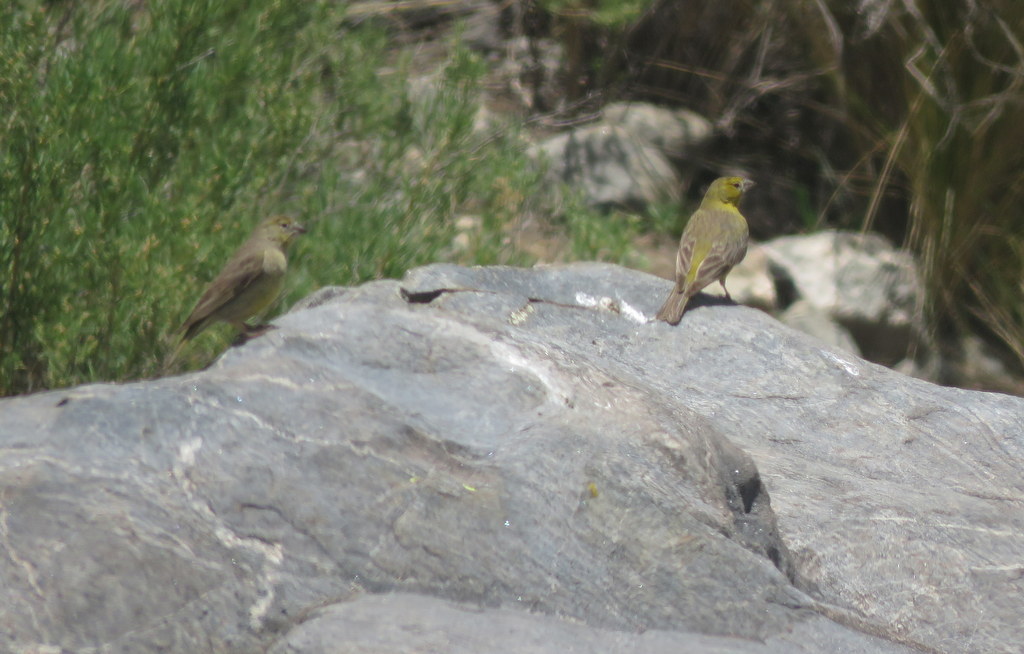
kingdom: Animalia
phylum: Chordata
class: Aves
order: Passeriformes
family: Thraupidae
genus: Sicalis
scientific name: Sicalis olivascens
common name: Greenish yellow finch
